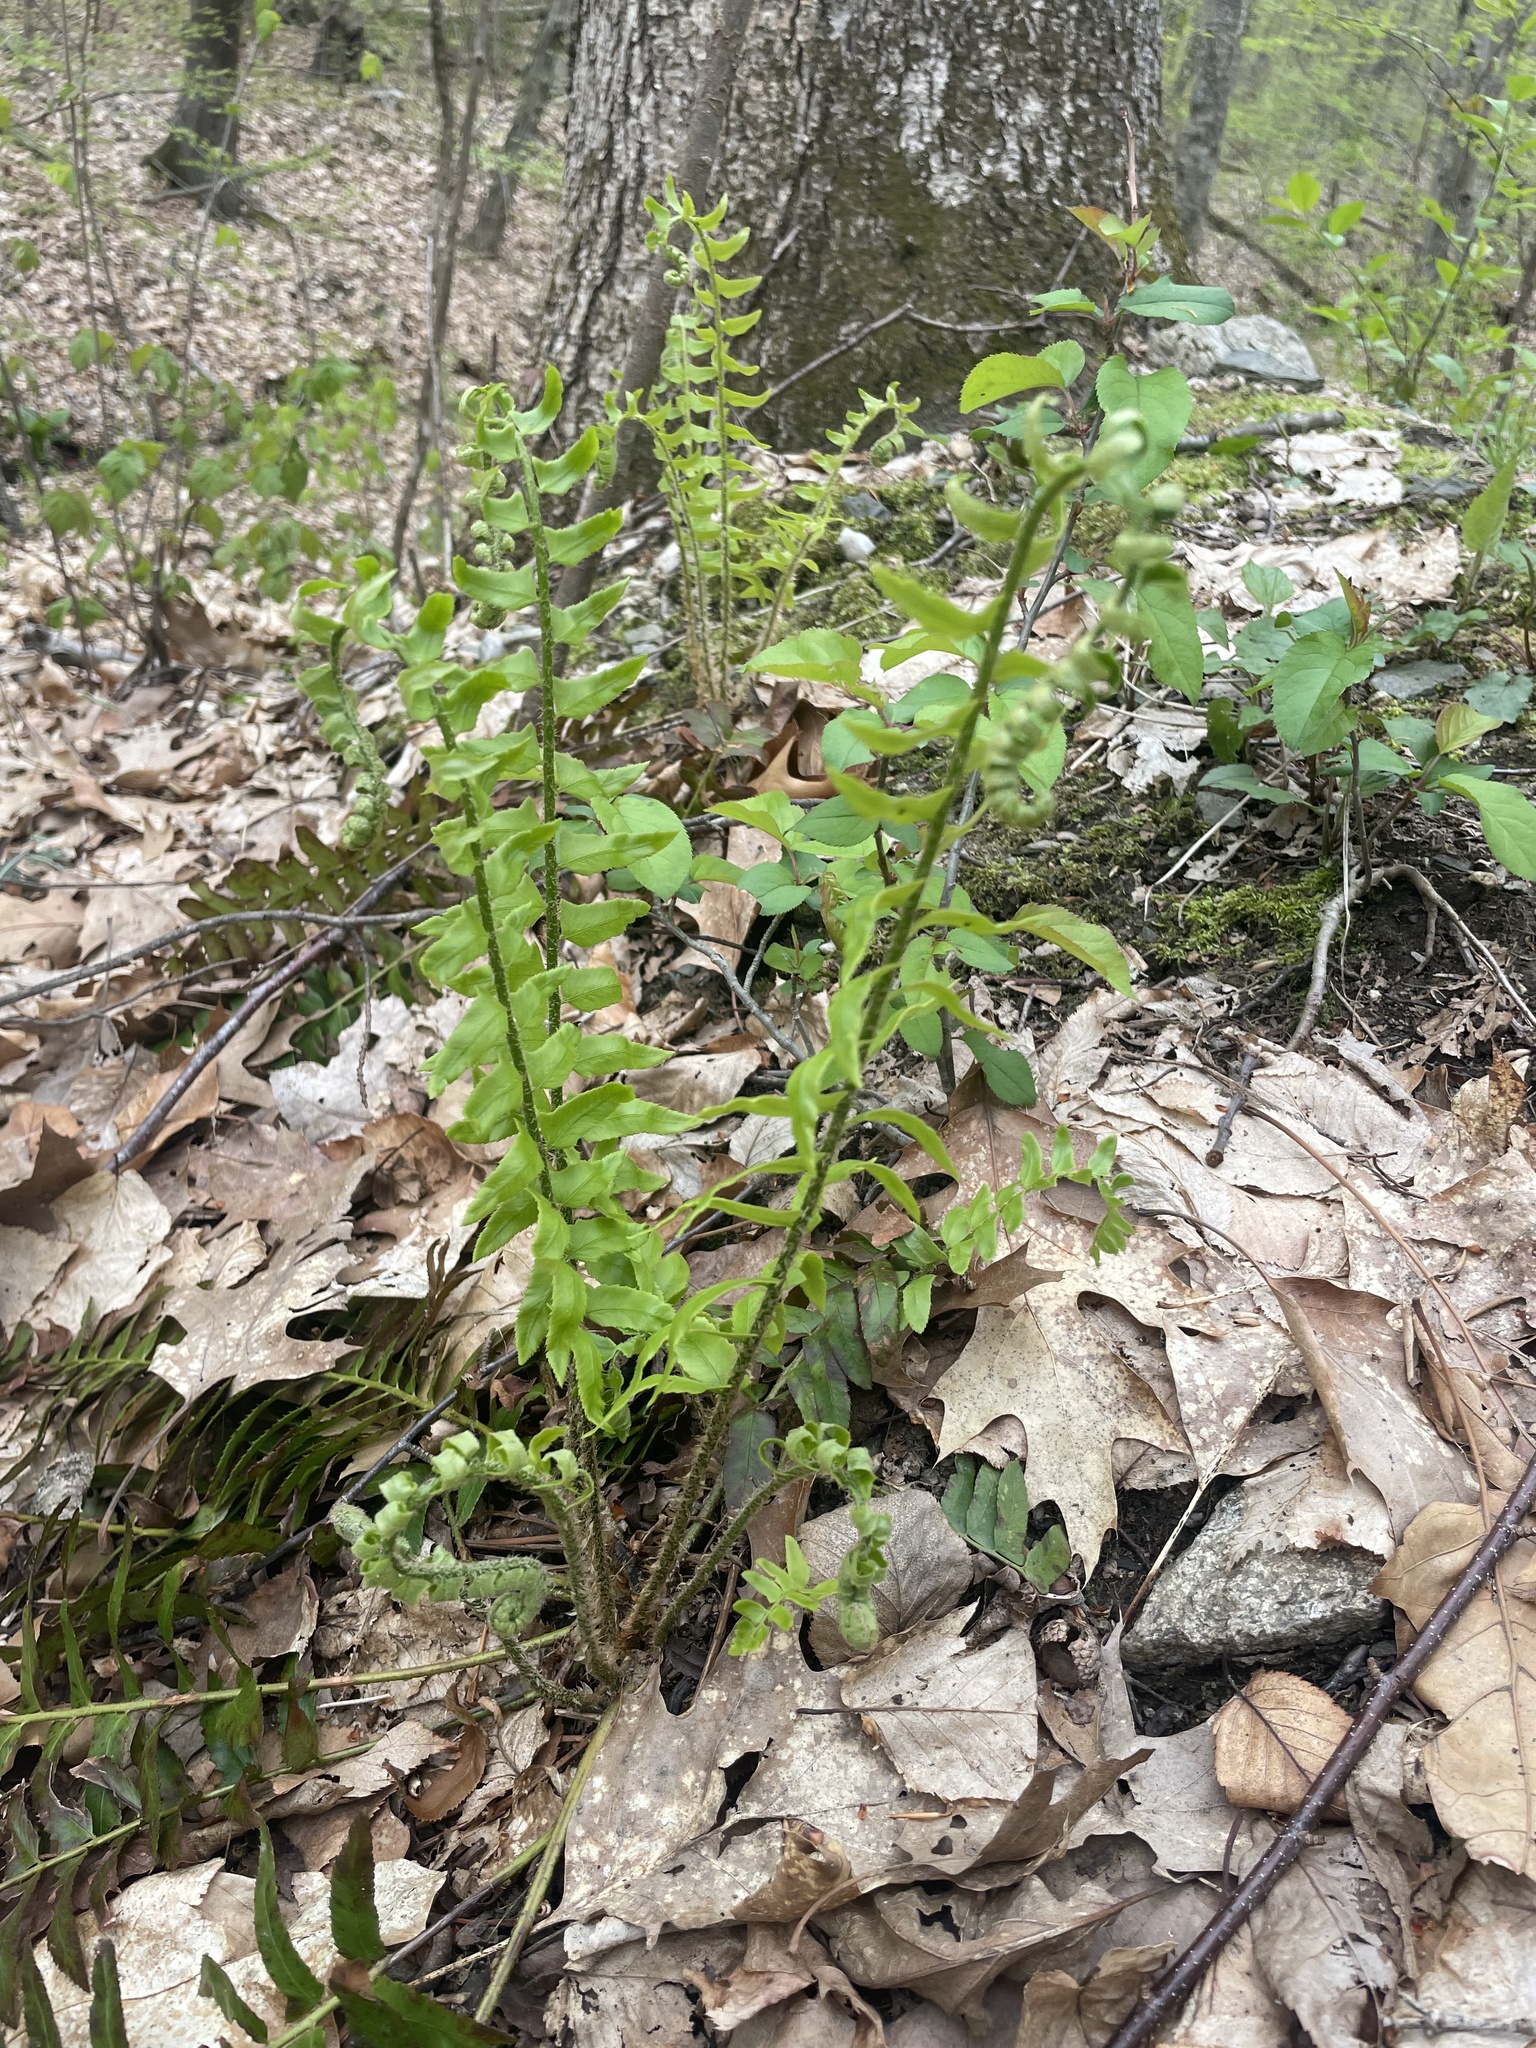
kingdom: Plantae
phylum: Tracheophyta
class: Polypodiopsida
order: Polypodiales
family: Dryopteridaceae
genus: Polystichum
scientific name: Polystichum acrostichoides
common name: Christmas fern
